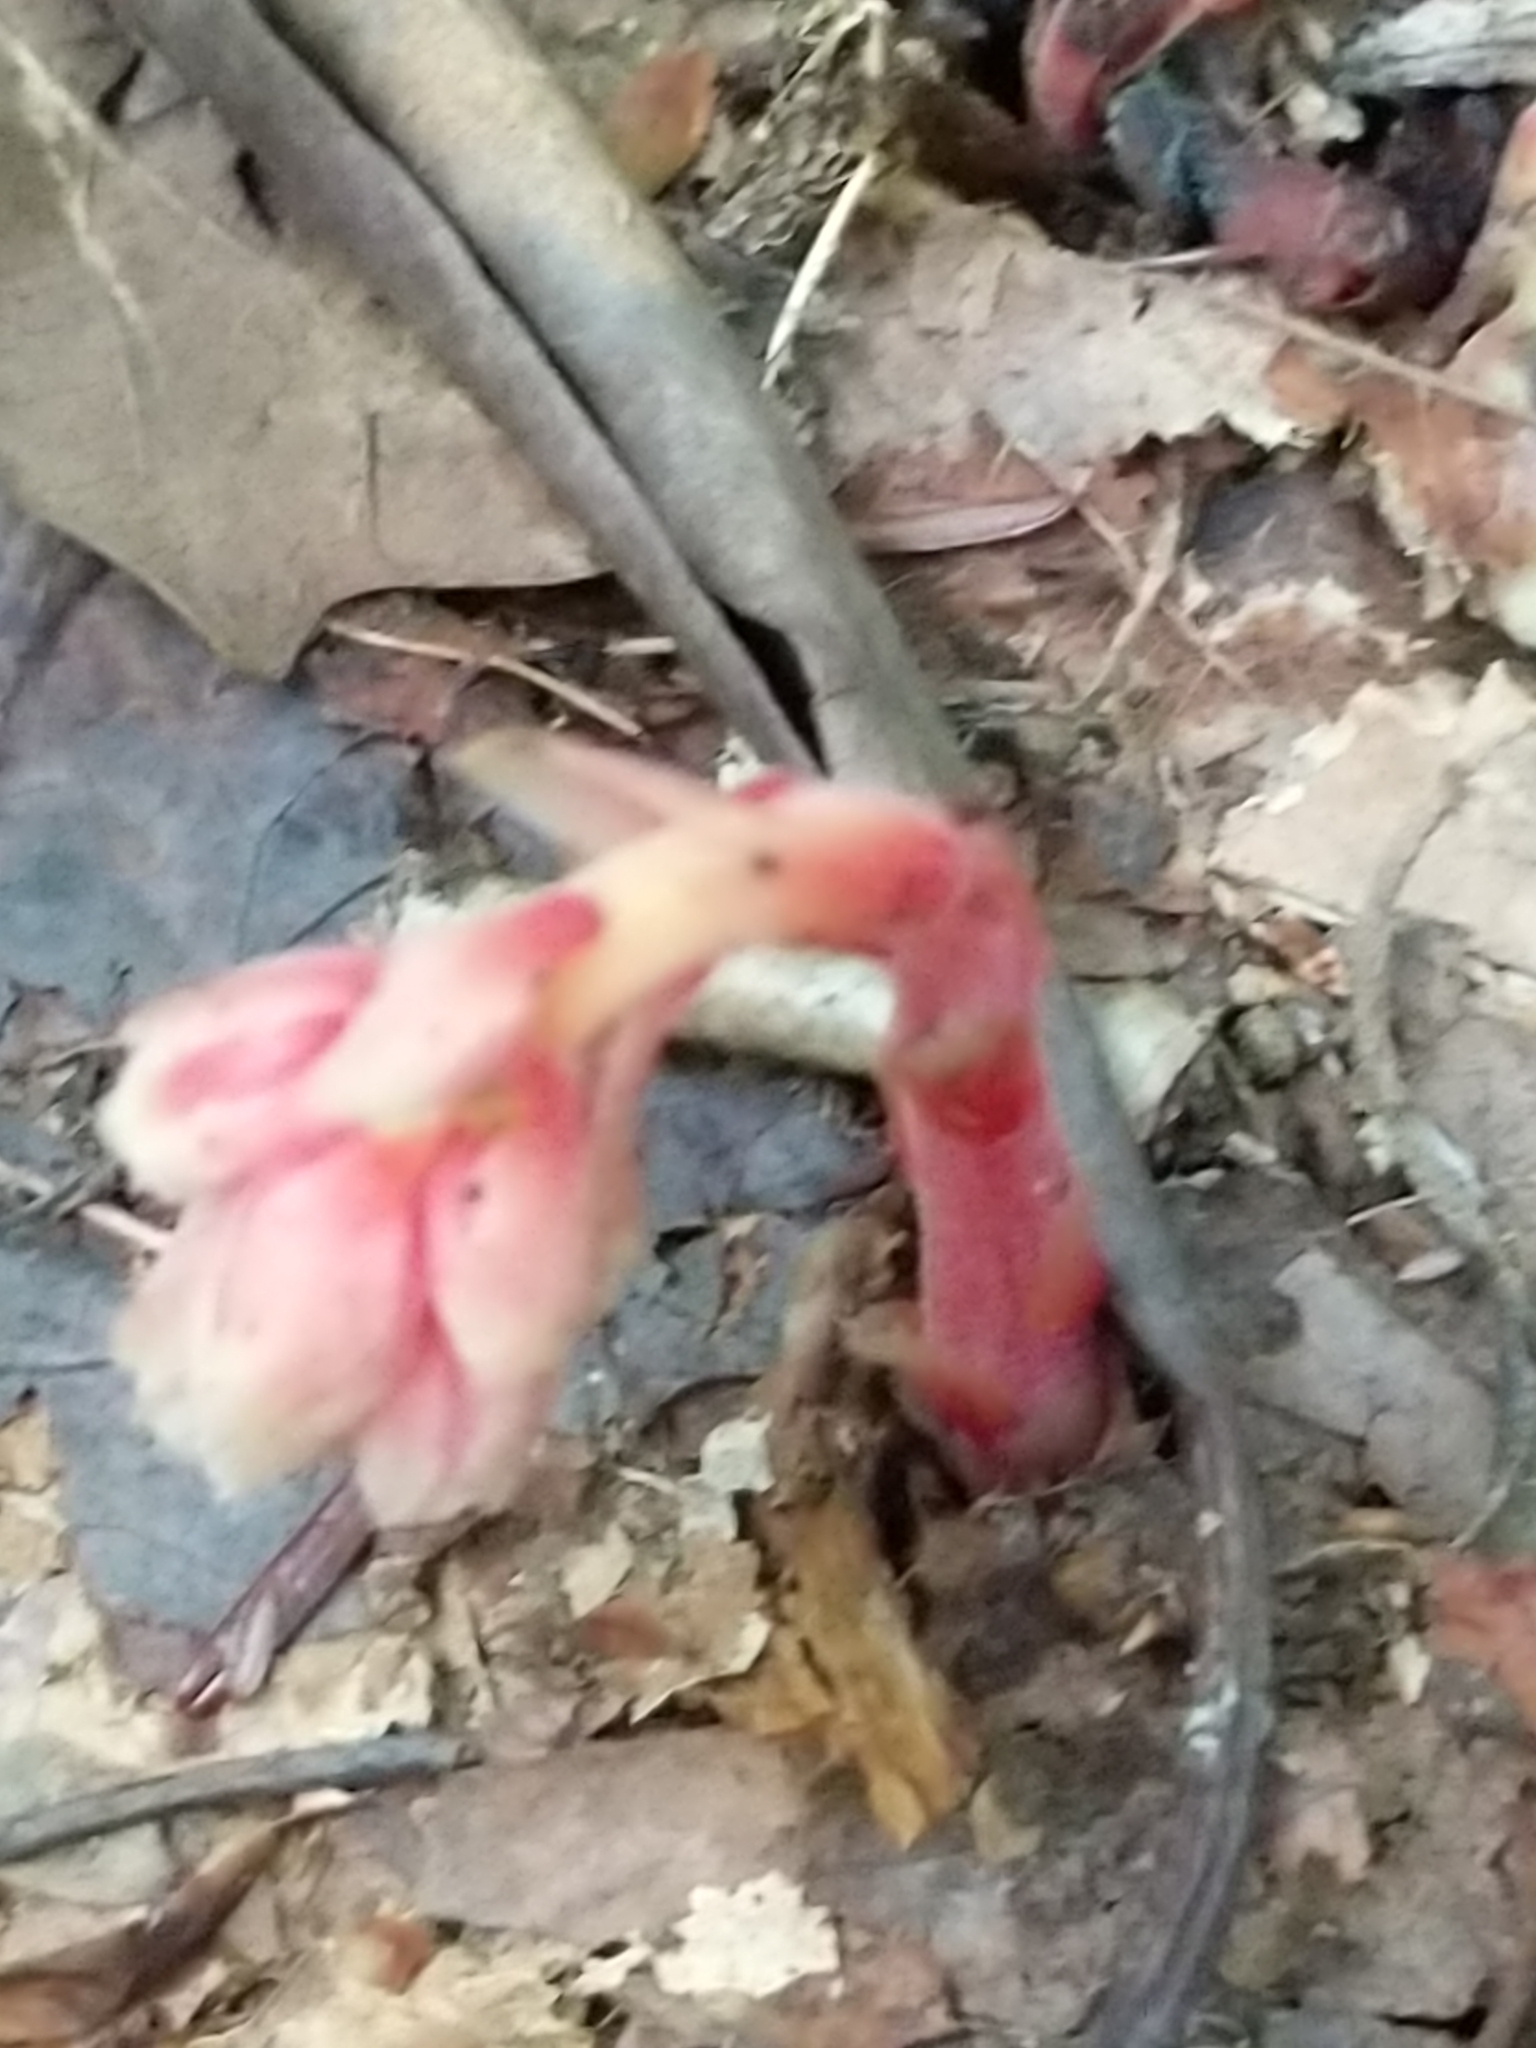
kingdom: Plantae
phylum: Tracheophyta
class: Magnoliopsida
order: Ericales
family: Ericaceae
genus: Hypopitys
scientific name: Hypopitys monotropa
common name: Yellow bird's-nest
